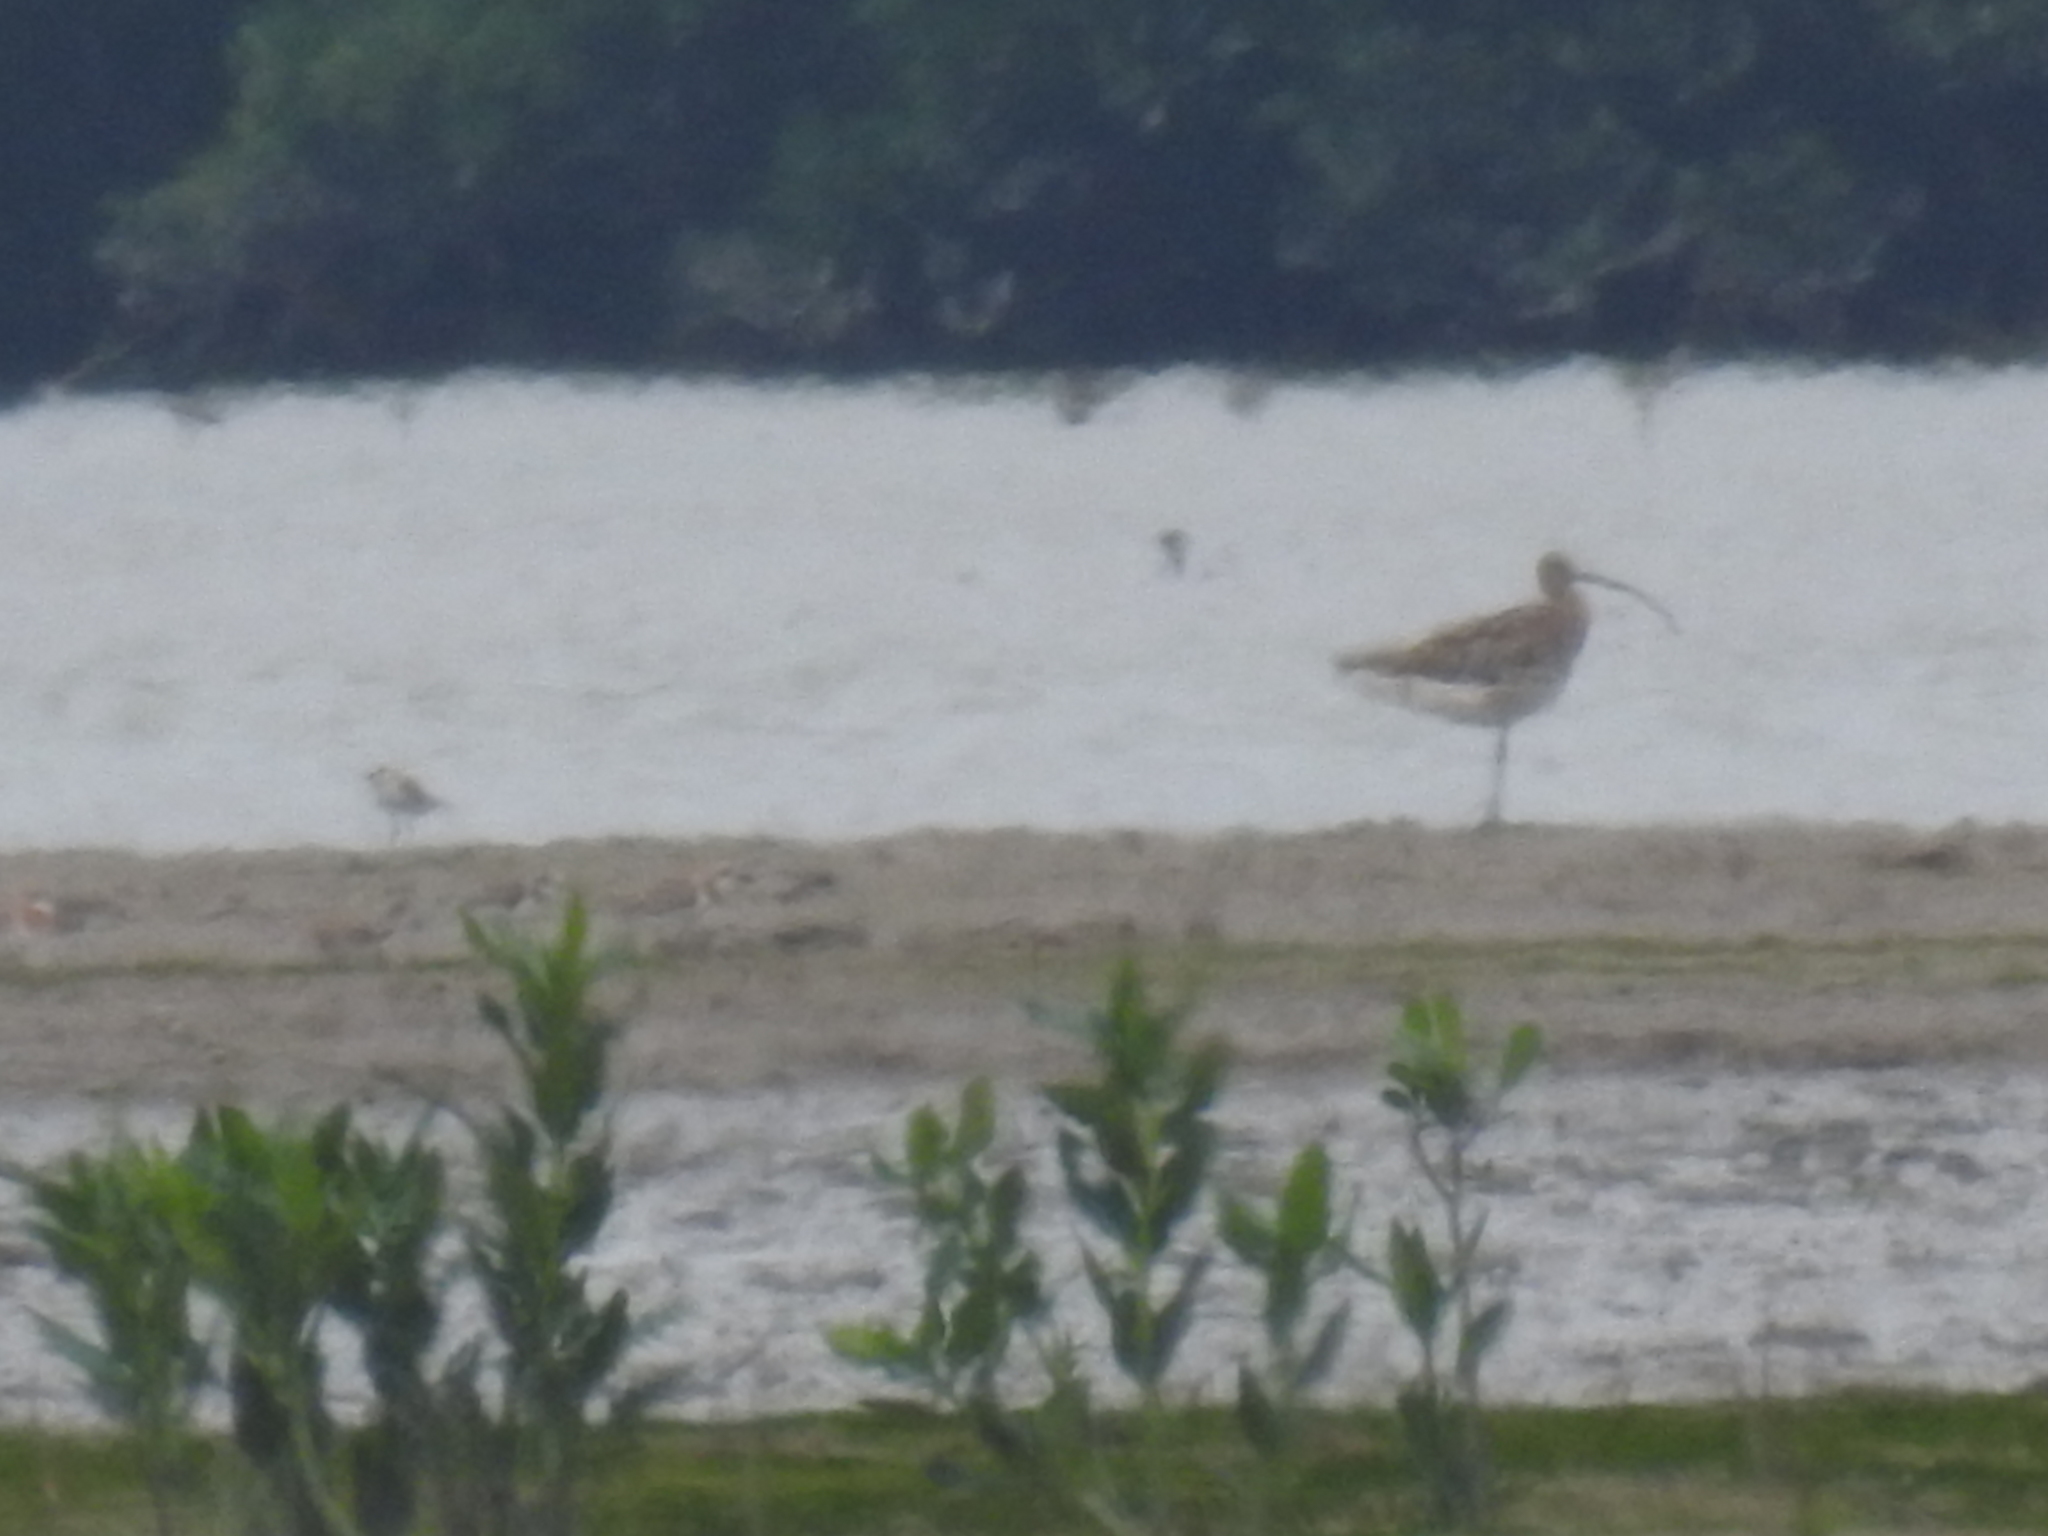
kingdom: Animalia
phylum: Chordata
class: Aves
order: Charadriiformes
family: Scolopacidae
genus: Numenius
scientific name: Numenius arquata
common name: Eurasian curlew
